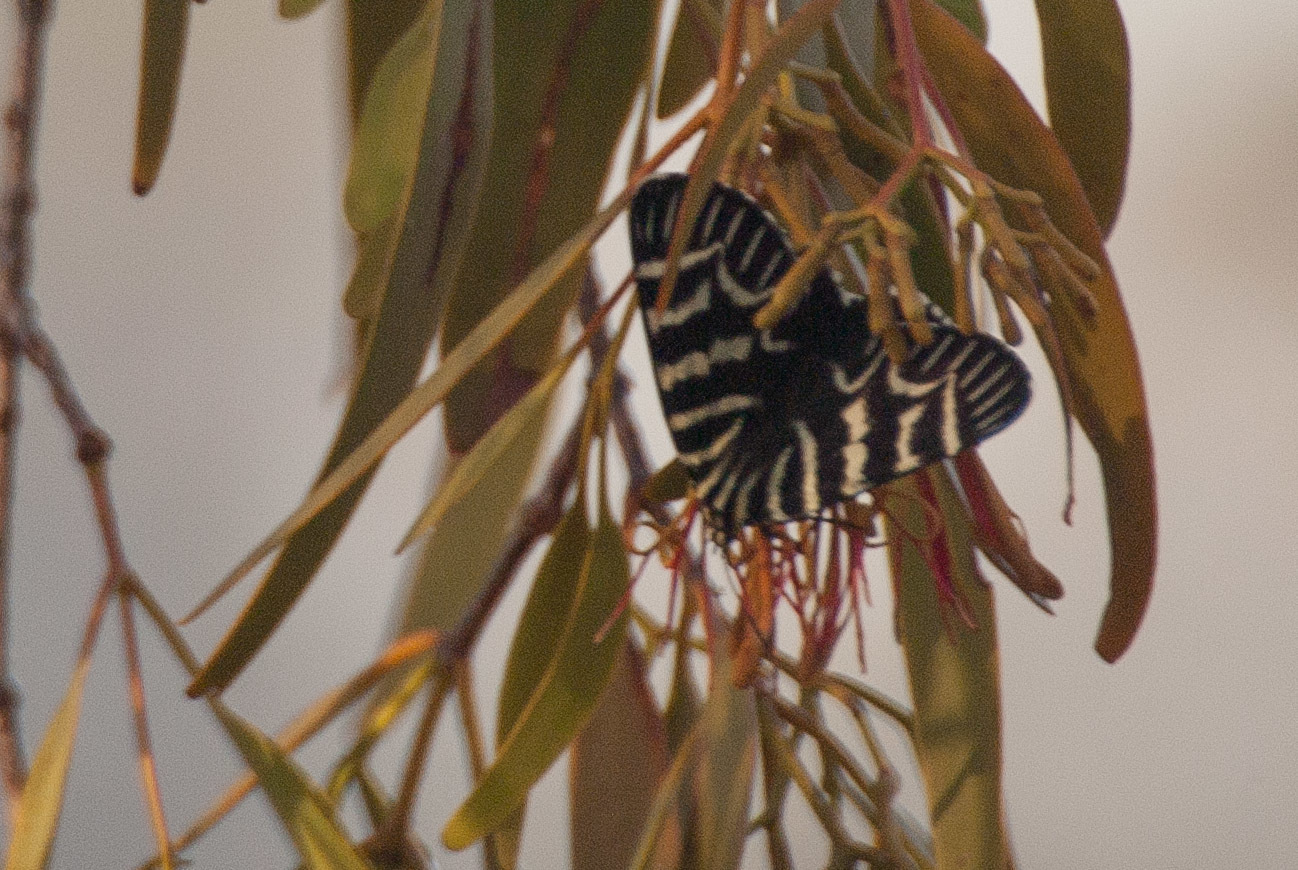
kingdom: Animalia
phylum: Arthropoda
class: Insecta
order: Lepidoptera
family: Noctuidae
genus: Comocrus
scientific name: Comocrus behri
